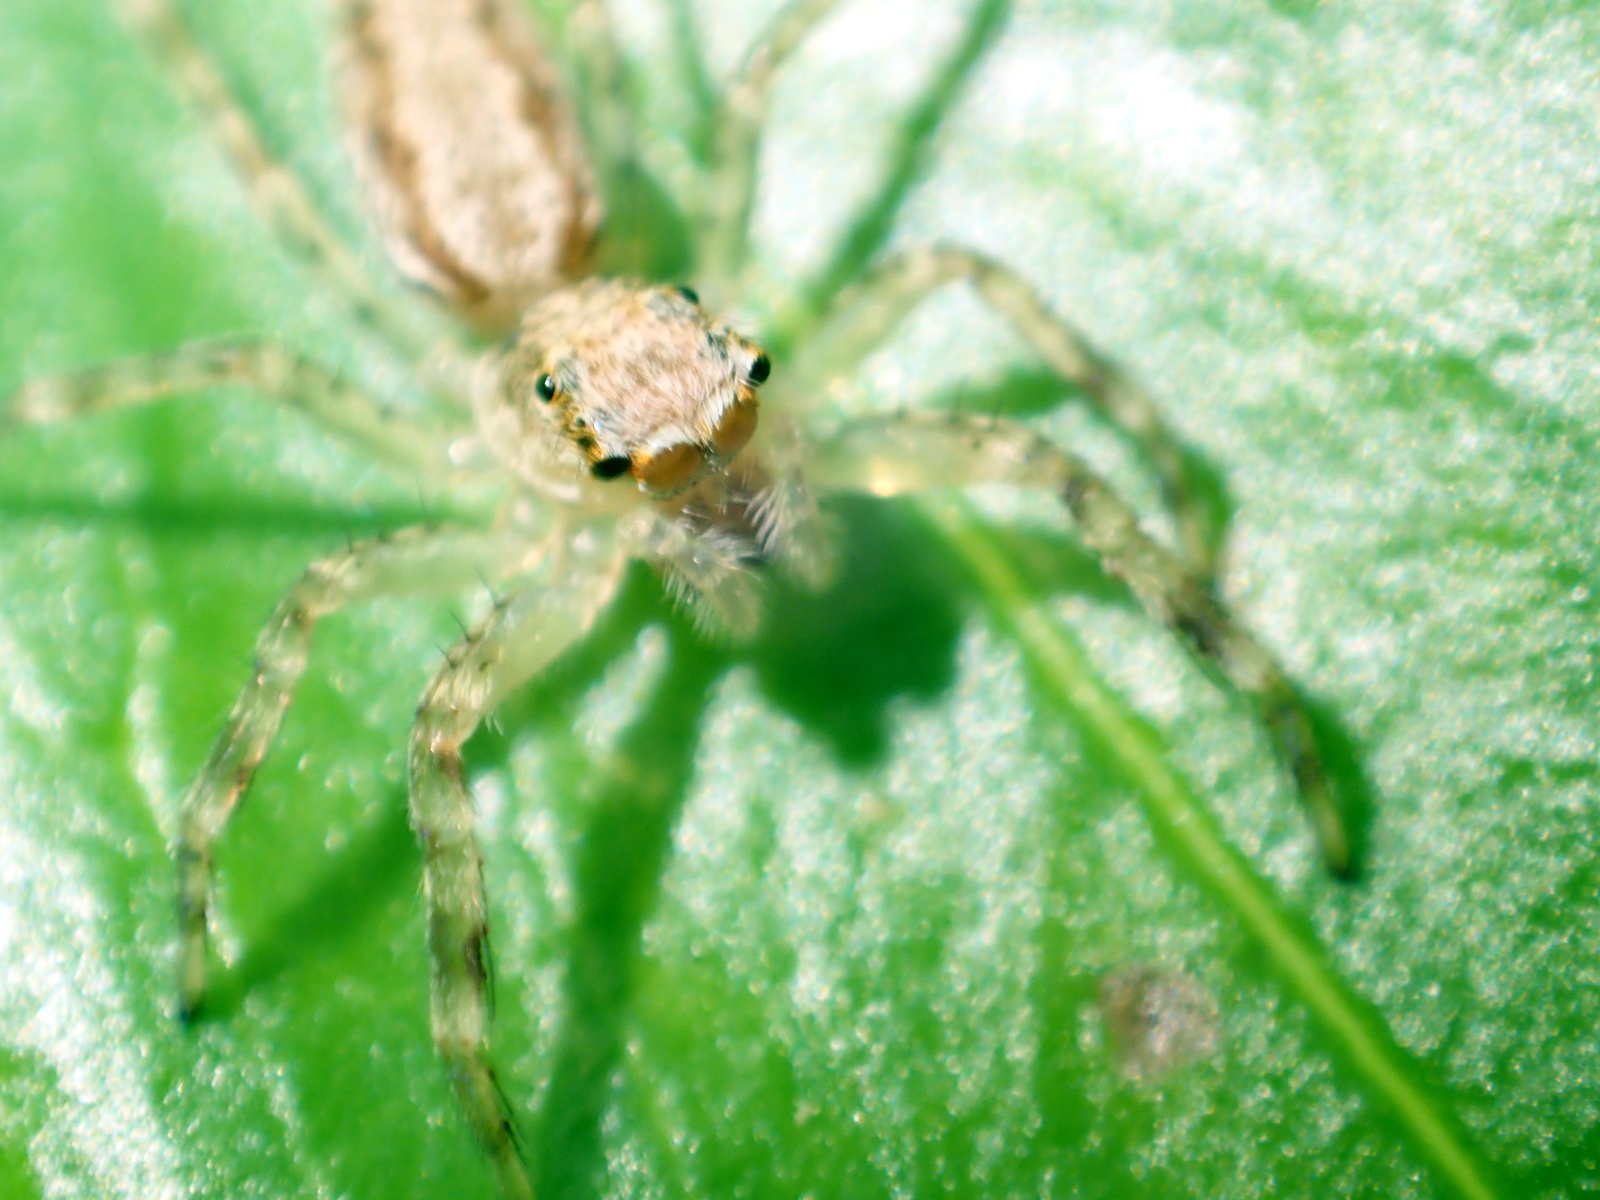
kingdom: Animalia
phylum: Arthropoda
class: Arachnida
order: Araneae
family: Salticidae
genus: Helpis
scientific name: Helpis minitabunda
